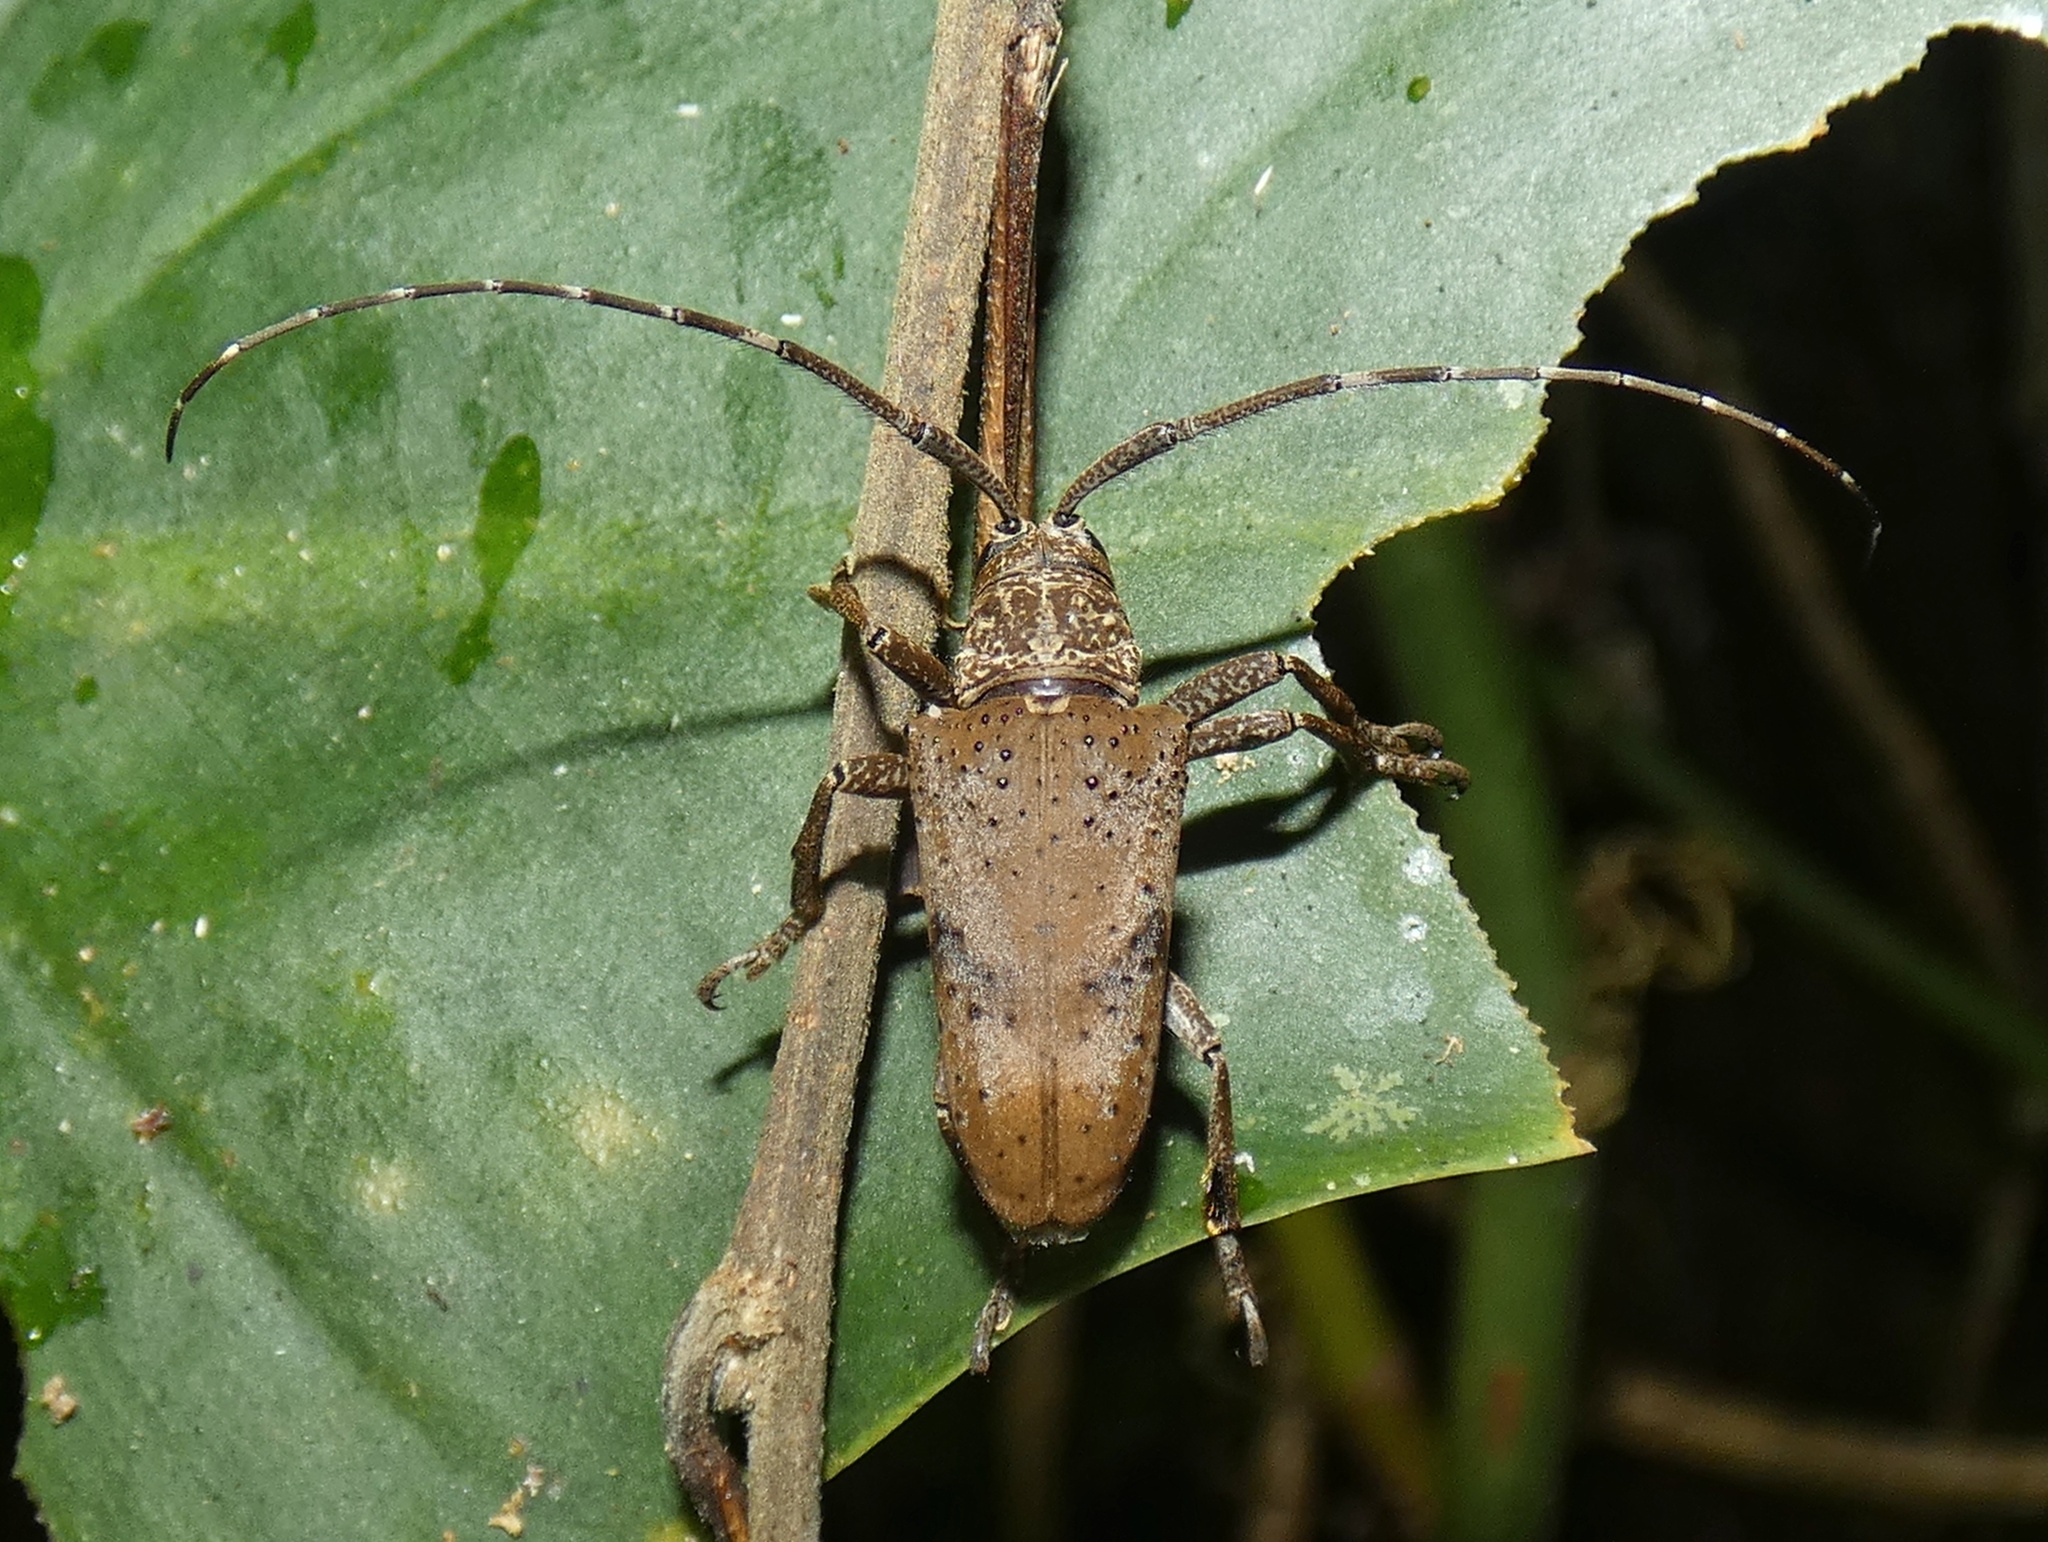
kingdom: Animalia
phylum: Arthropoda
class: Insecta
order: Coleoptera
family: Cerambycidae
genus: Jamesia
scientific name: Jamesia papulenta
